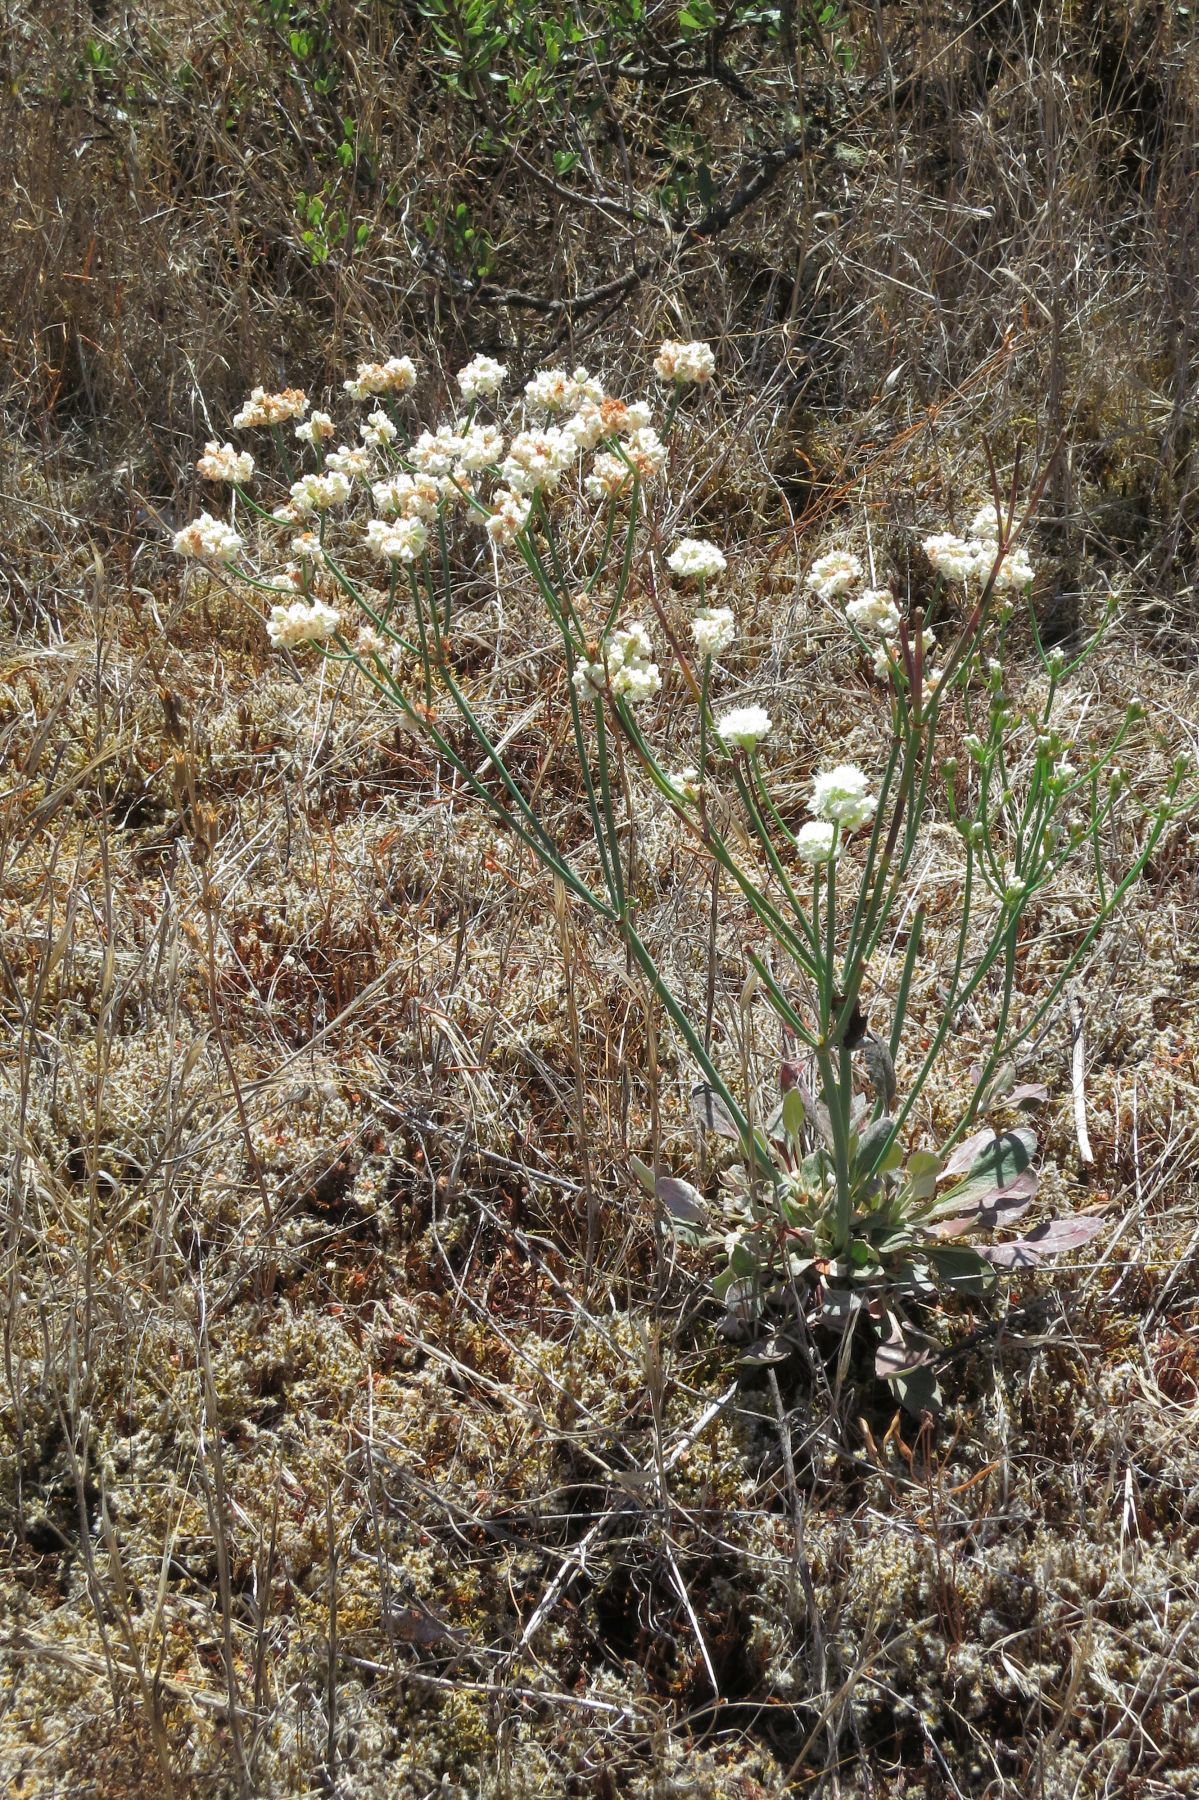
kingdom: Plantae
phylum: Tracheophyta
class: Magnoliopsida
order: Caryophyllales
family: Polygonaceae
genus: Eriogonum
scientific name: Eriogonum nudum
